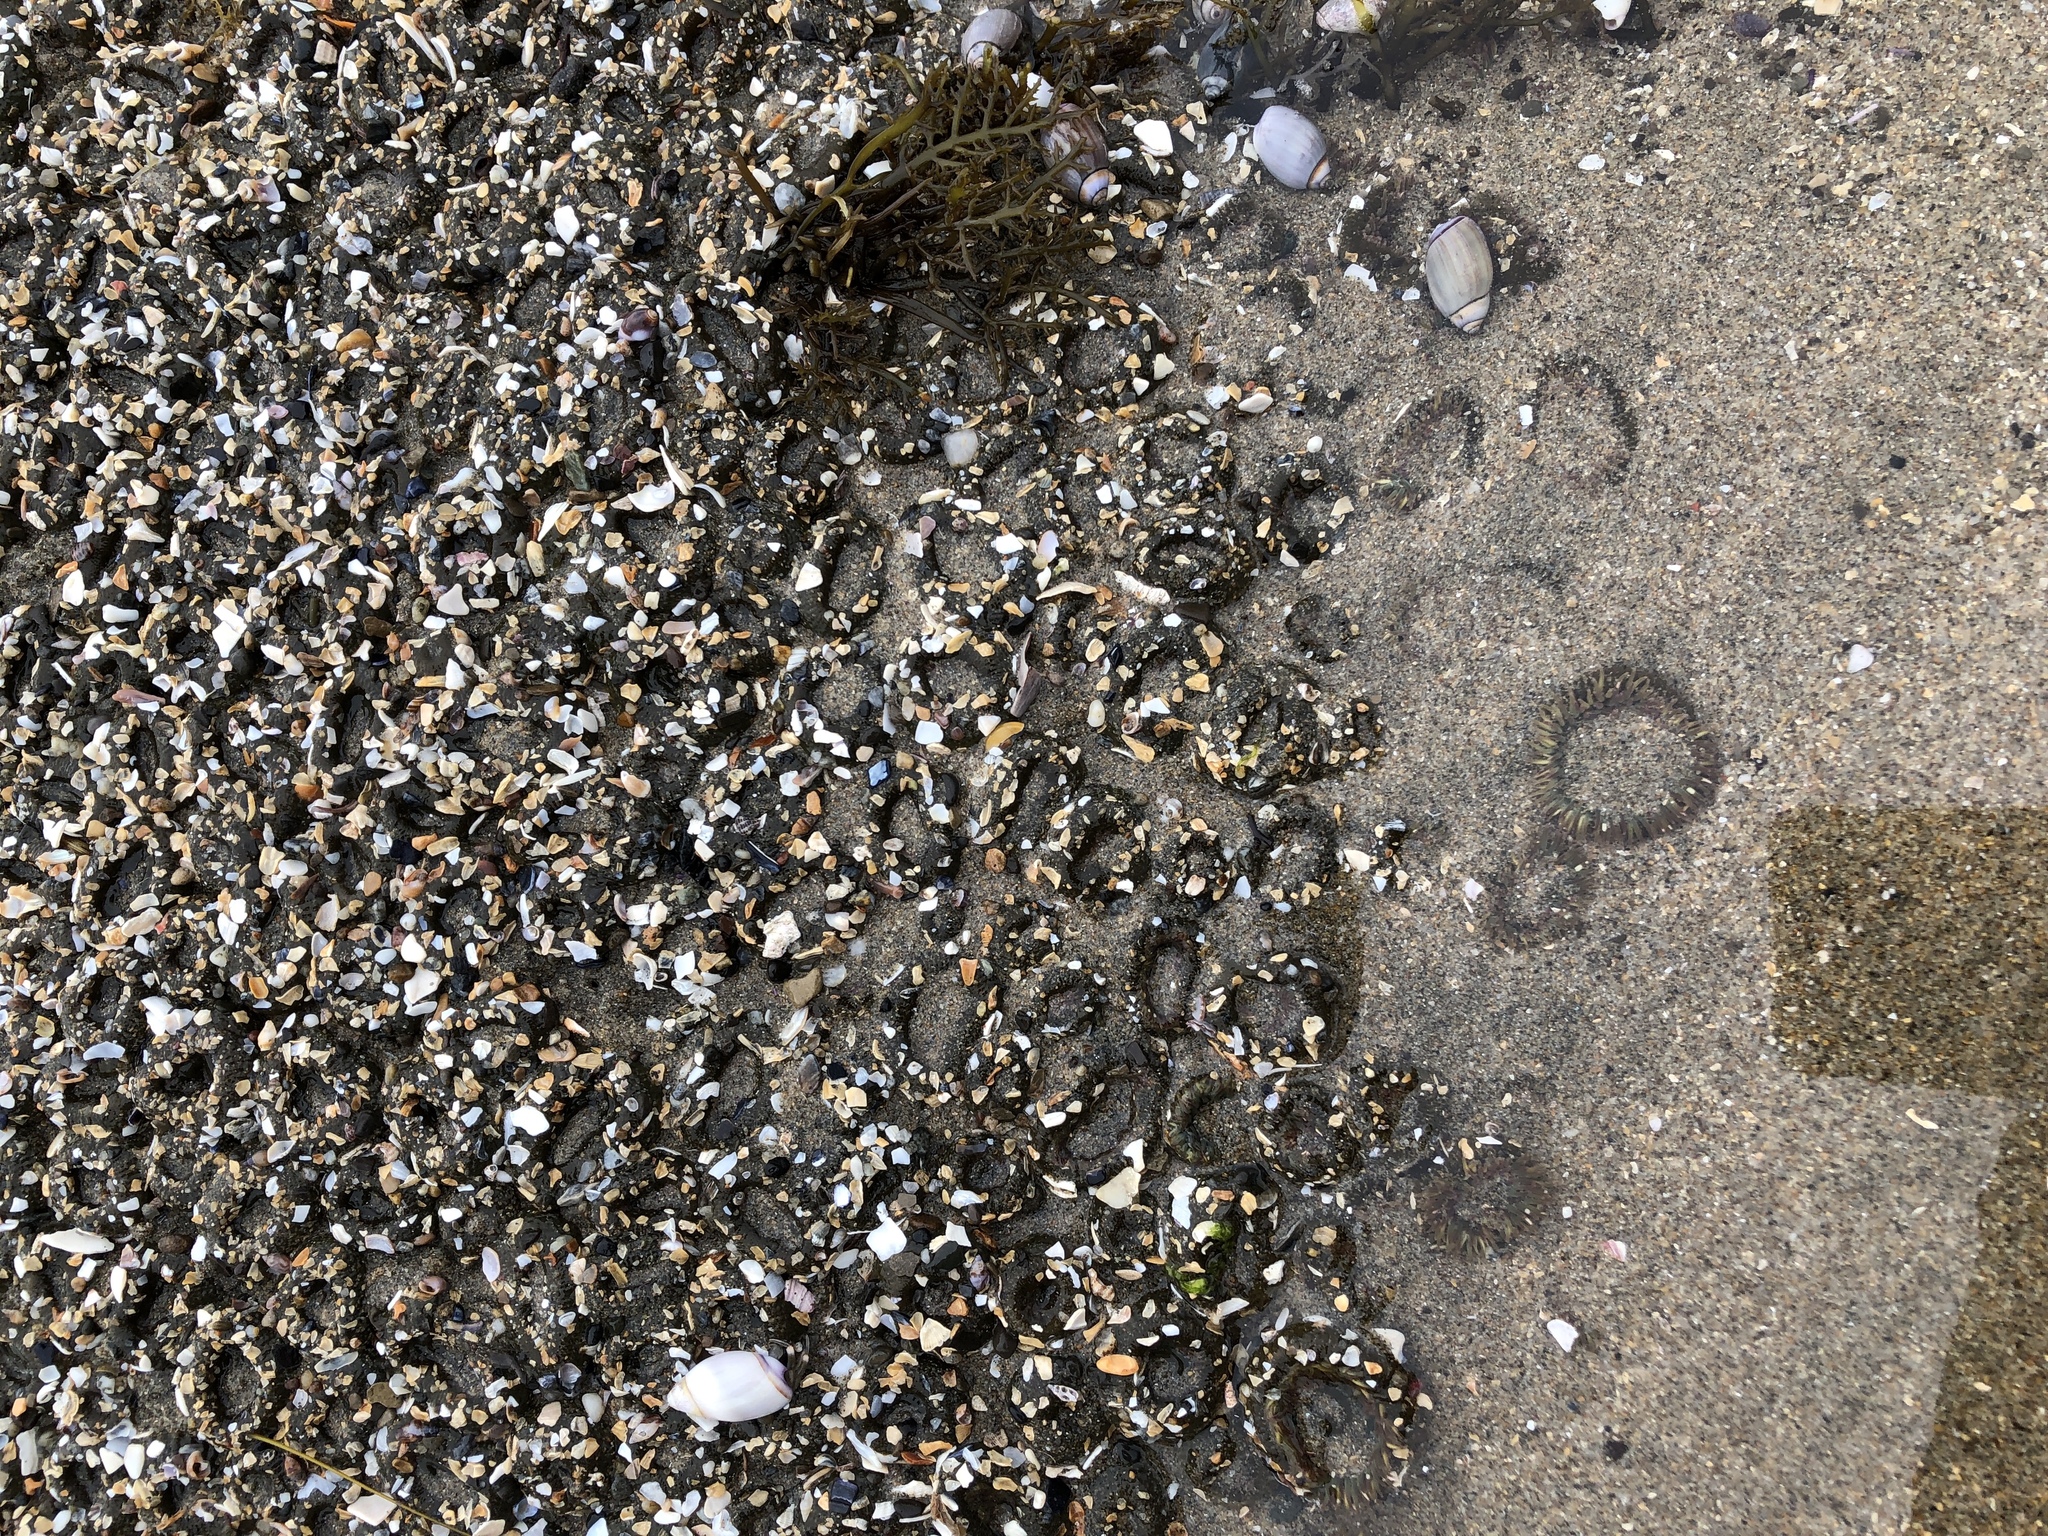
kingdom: Animalia
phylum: Cnidaria
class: Anthozoa
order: Actiniaria
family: Actiniidae
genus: Anthopleura
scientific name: Anthopleura elegantissima
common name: Clonal anemone
